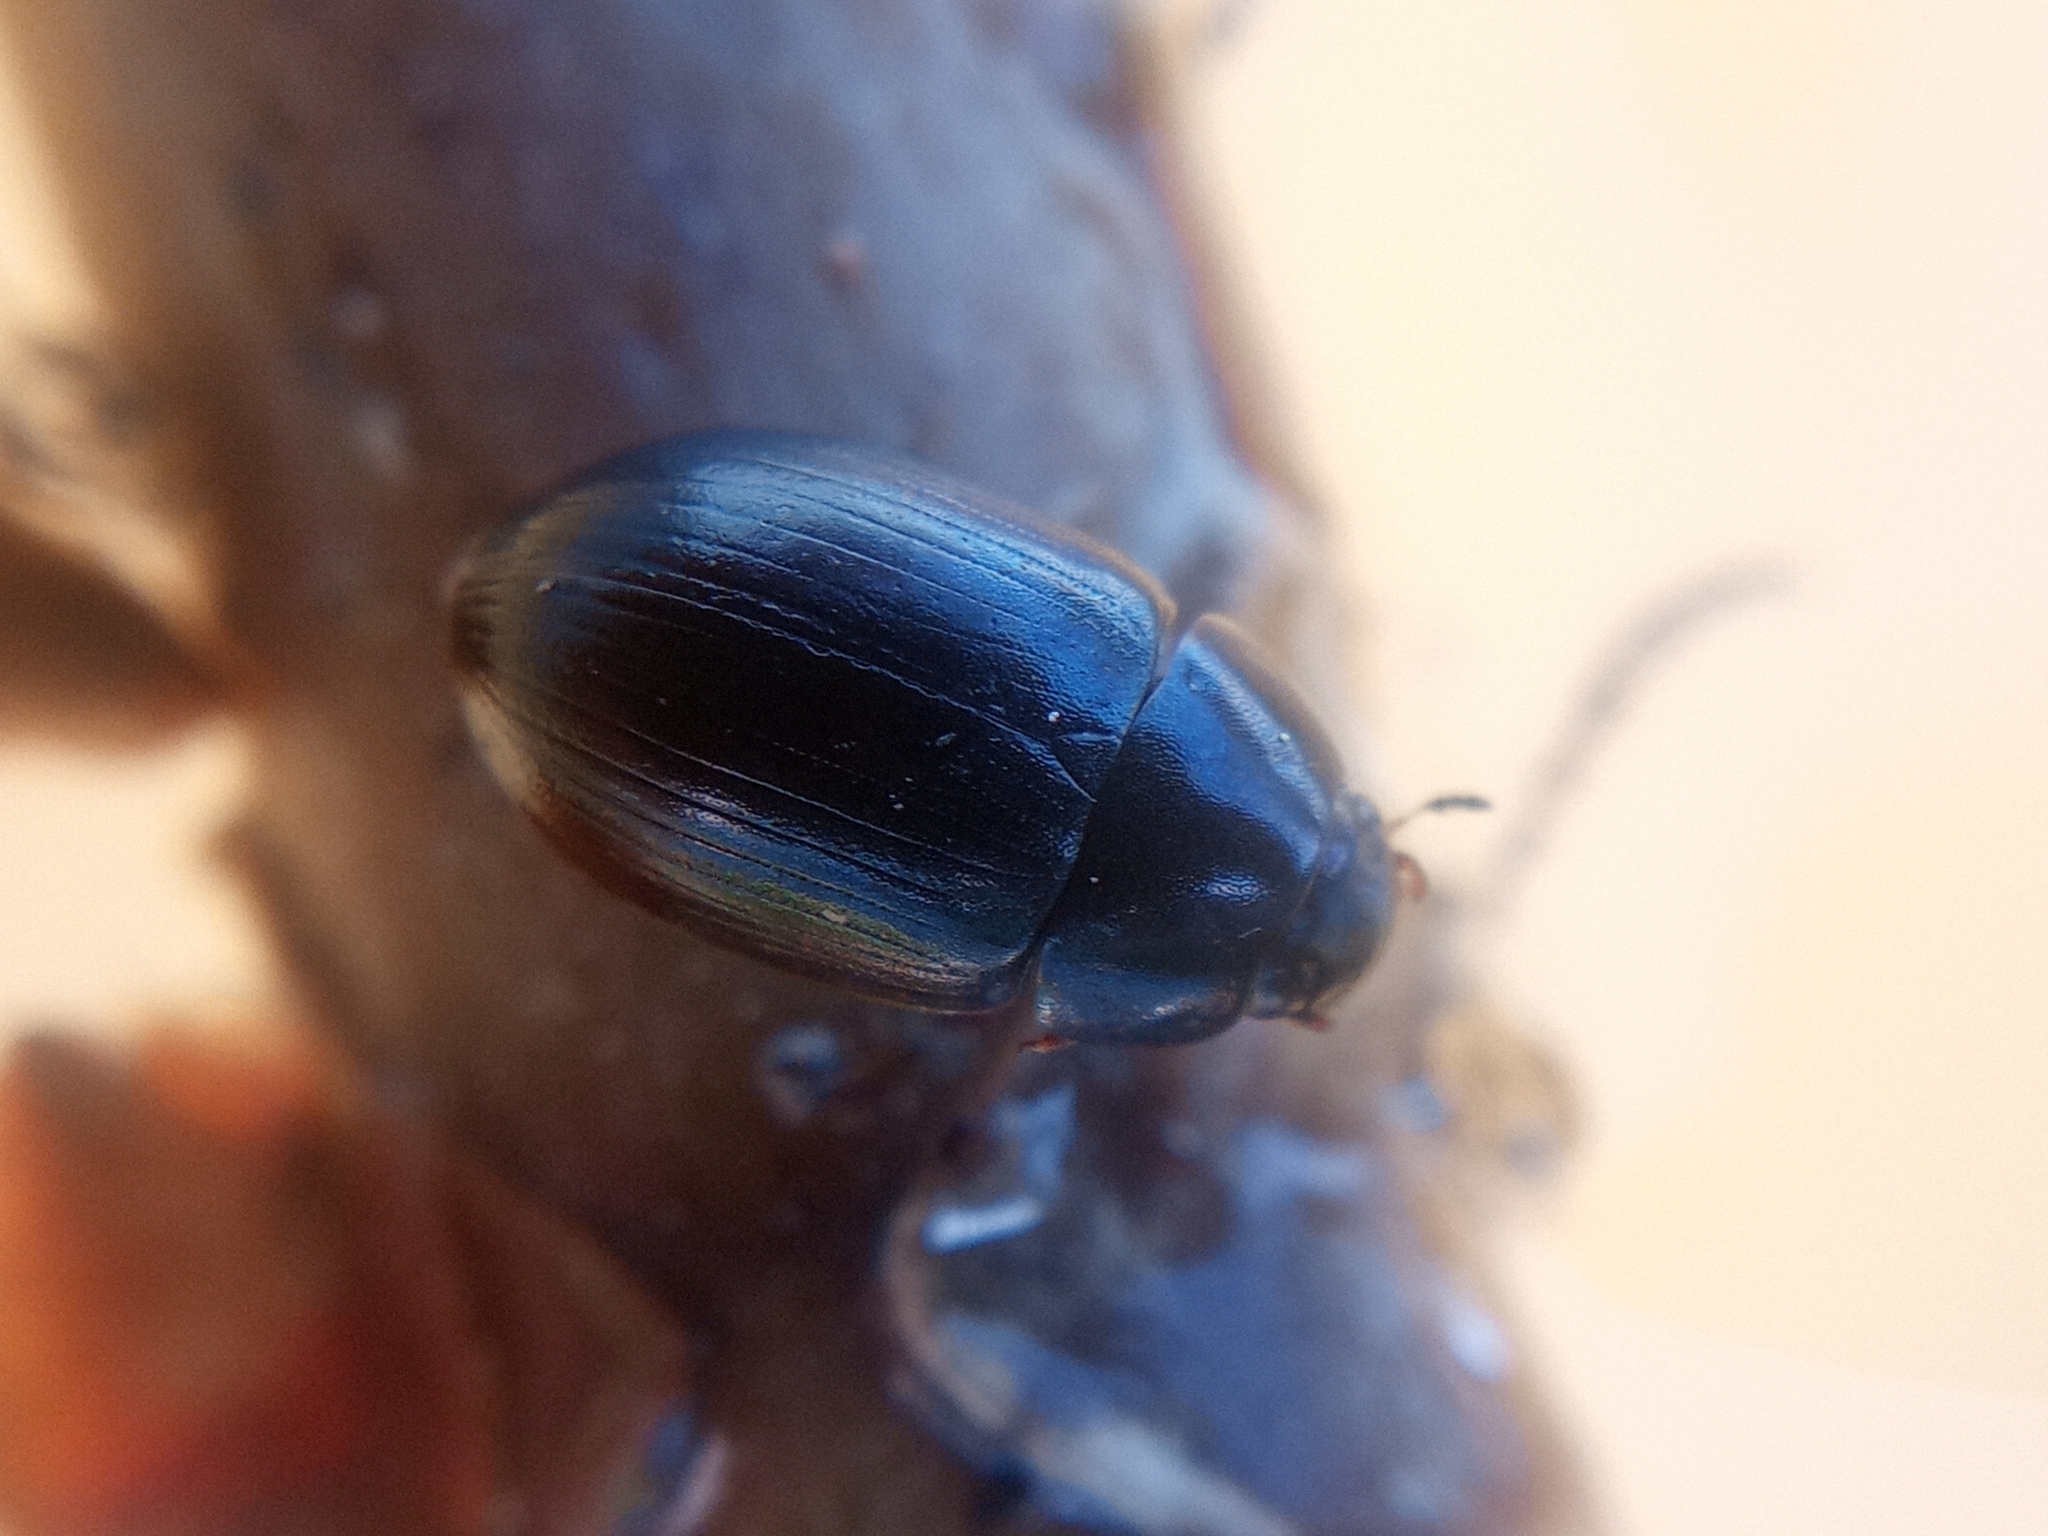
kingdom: Animalia
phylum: Arthropoda
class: Insecta
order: Coleoptera
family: Hydrophilidae
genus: Hydrobius
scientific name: Hydrobius
